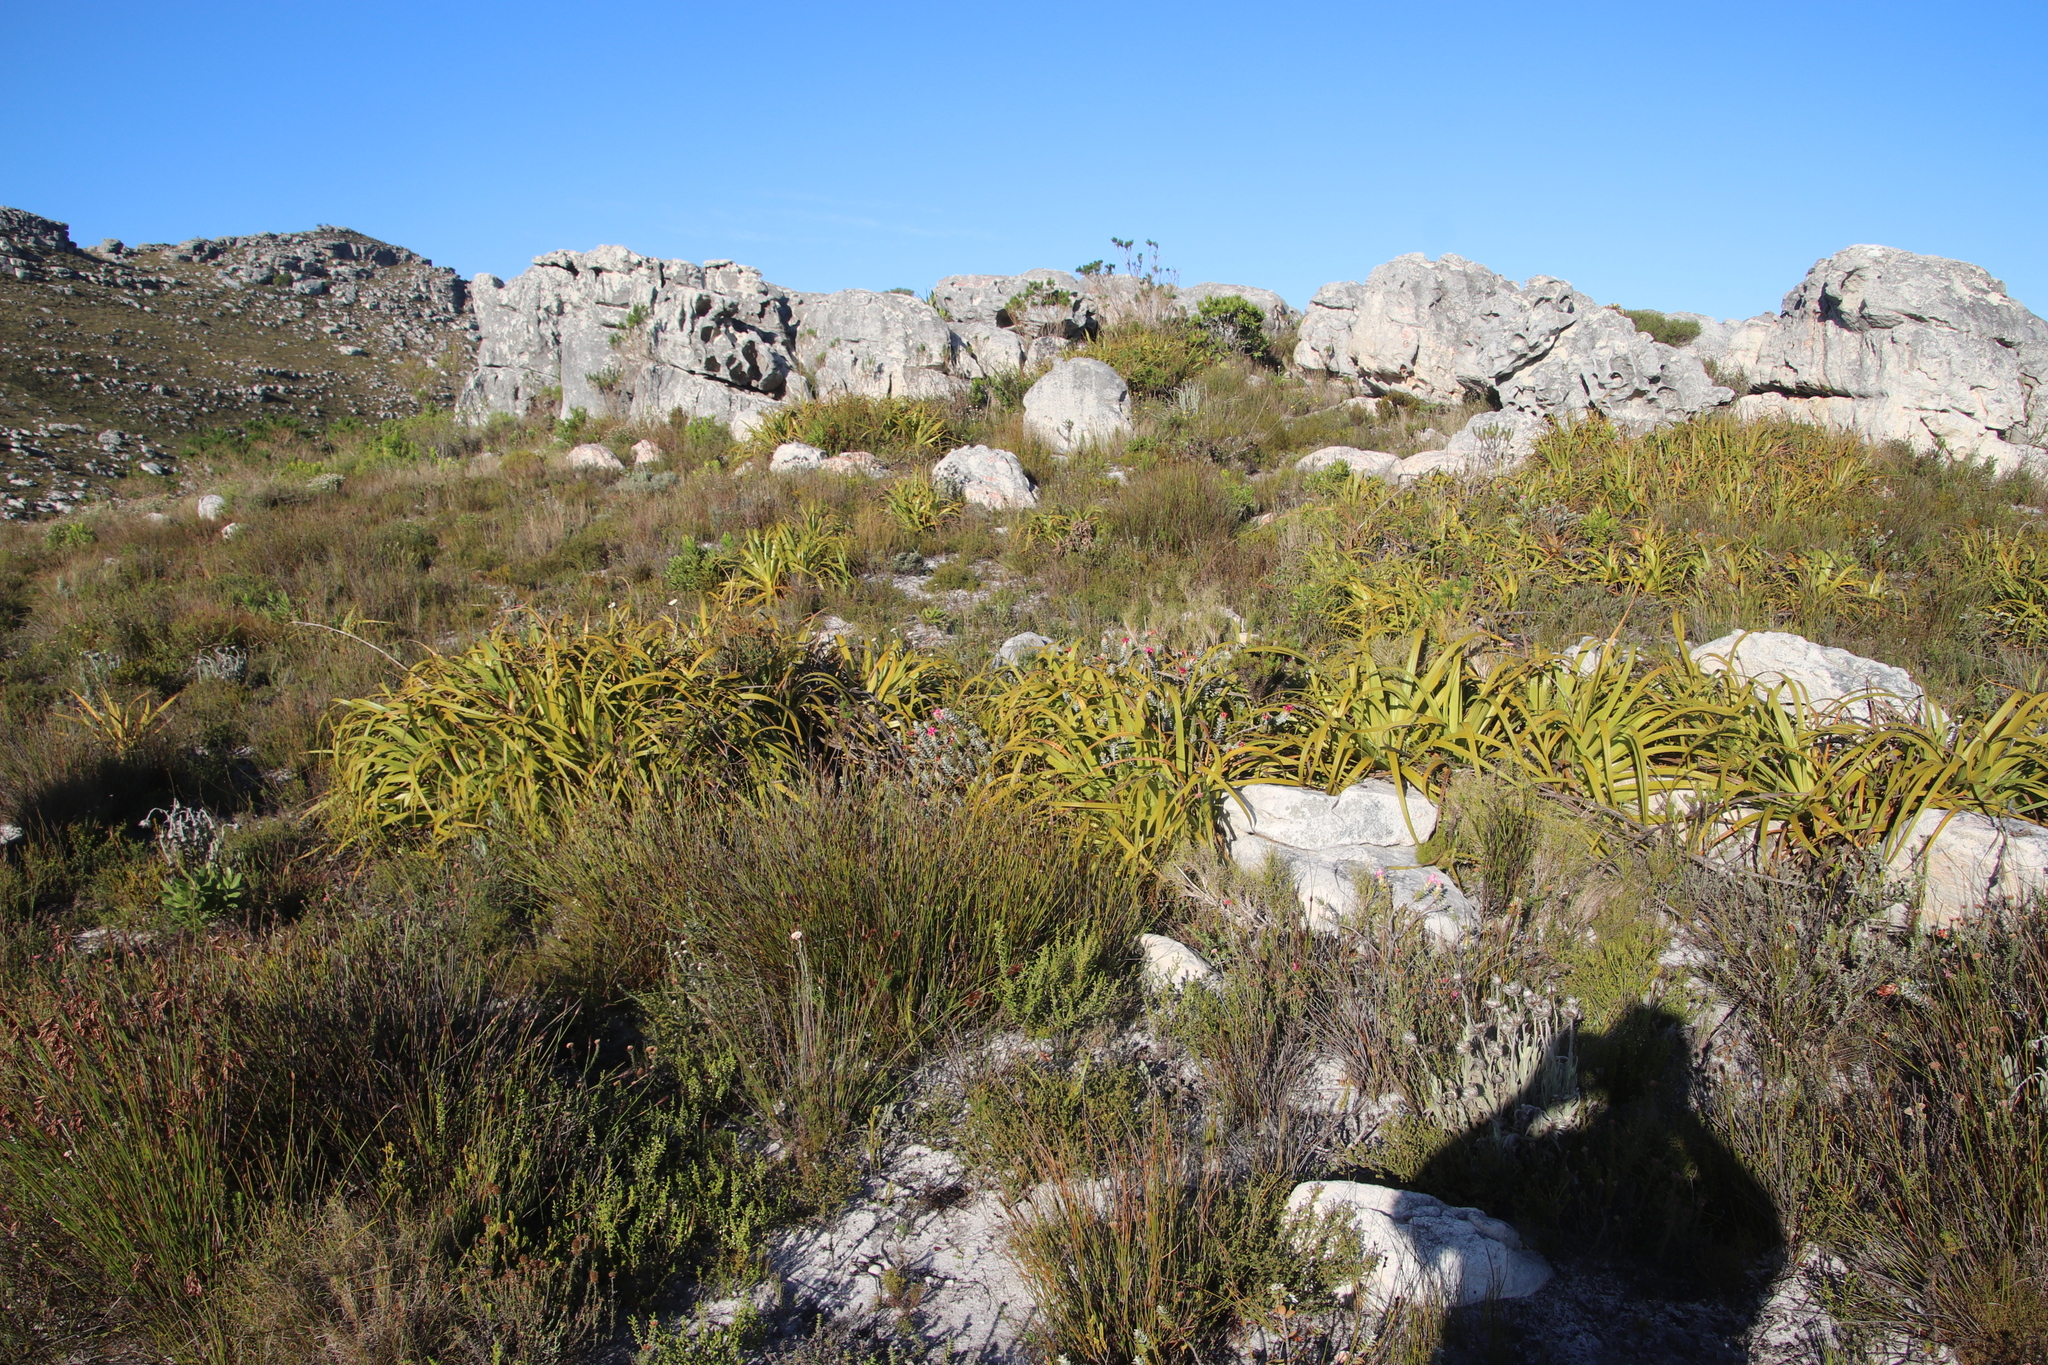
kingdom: Plantae
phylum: Tracheophyta
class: Liliopsida
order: Poales
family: Cyperaceae
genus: Tetraria
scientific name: Tetraria thermalis
